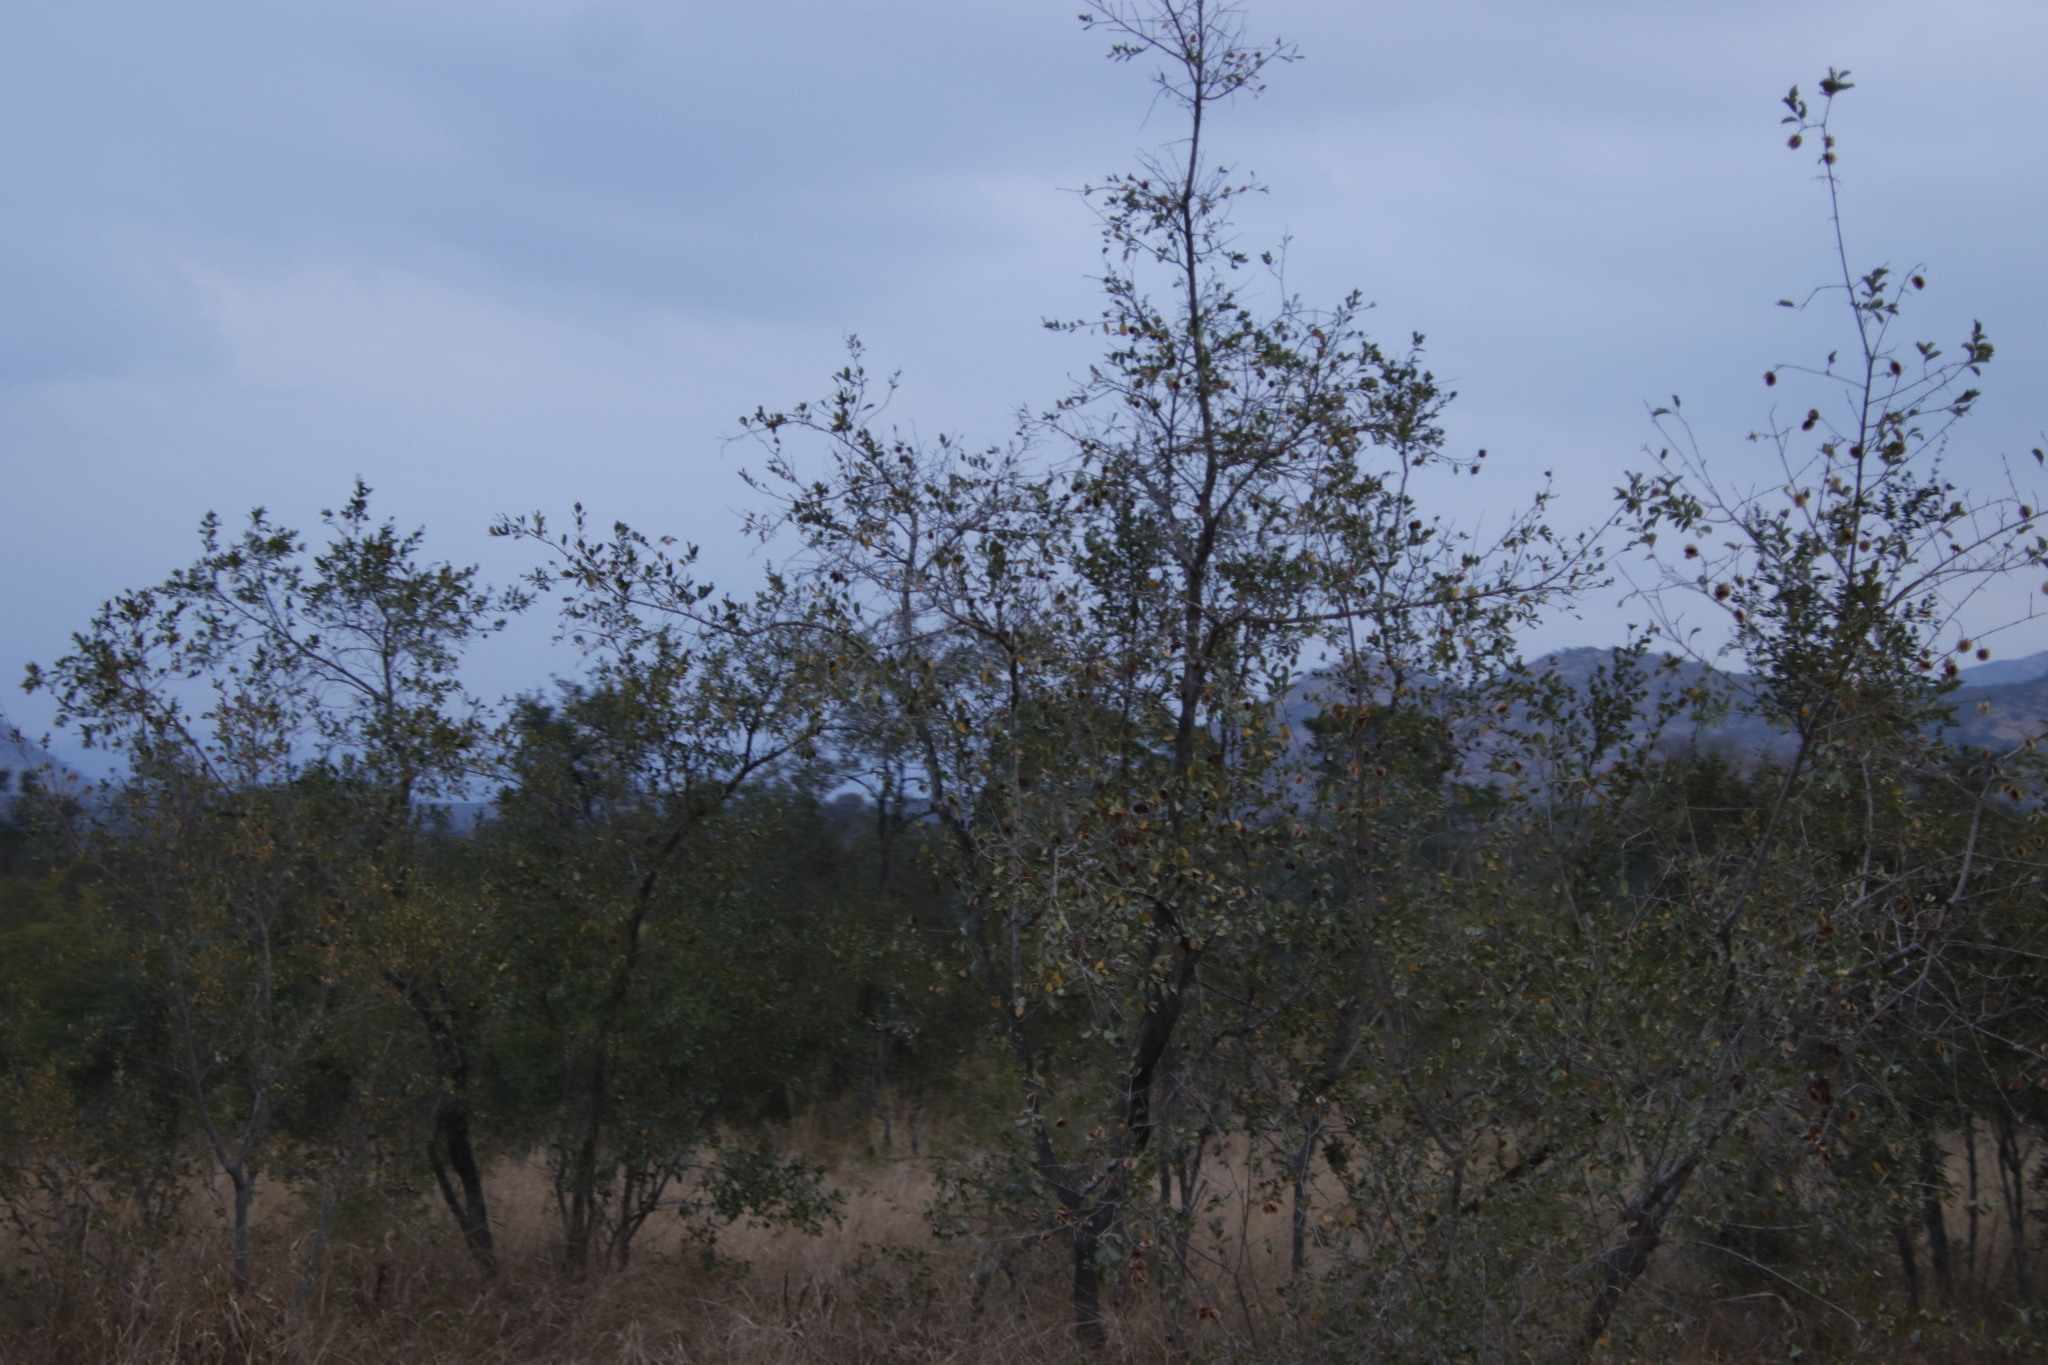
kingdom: Plantae
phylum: Tracheophyta
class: Magnoliopsida
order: Myrtales
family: Combretaceae
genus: Combretum
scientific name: Combretum apiculatum
